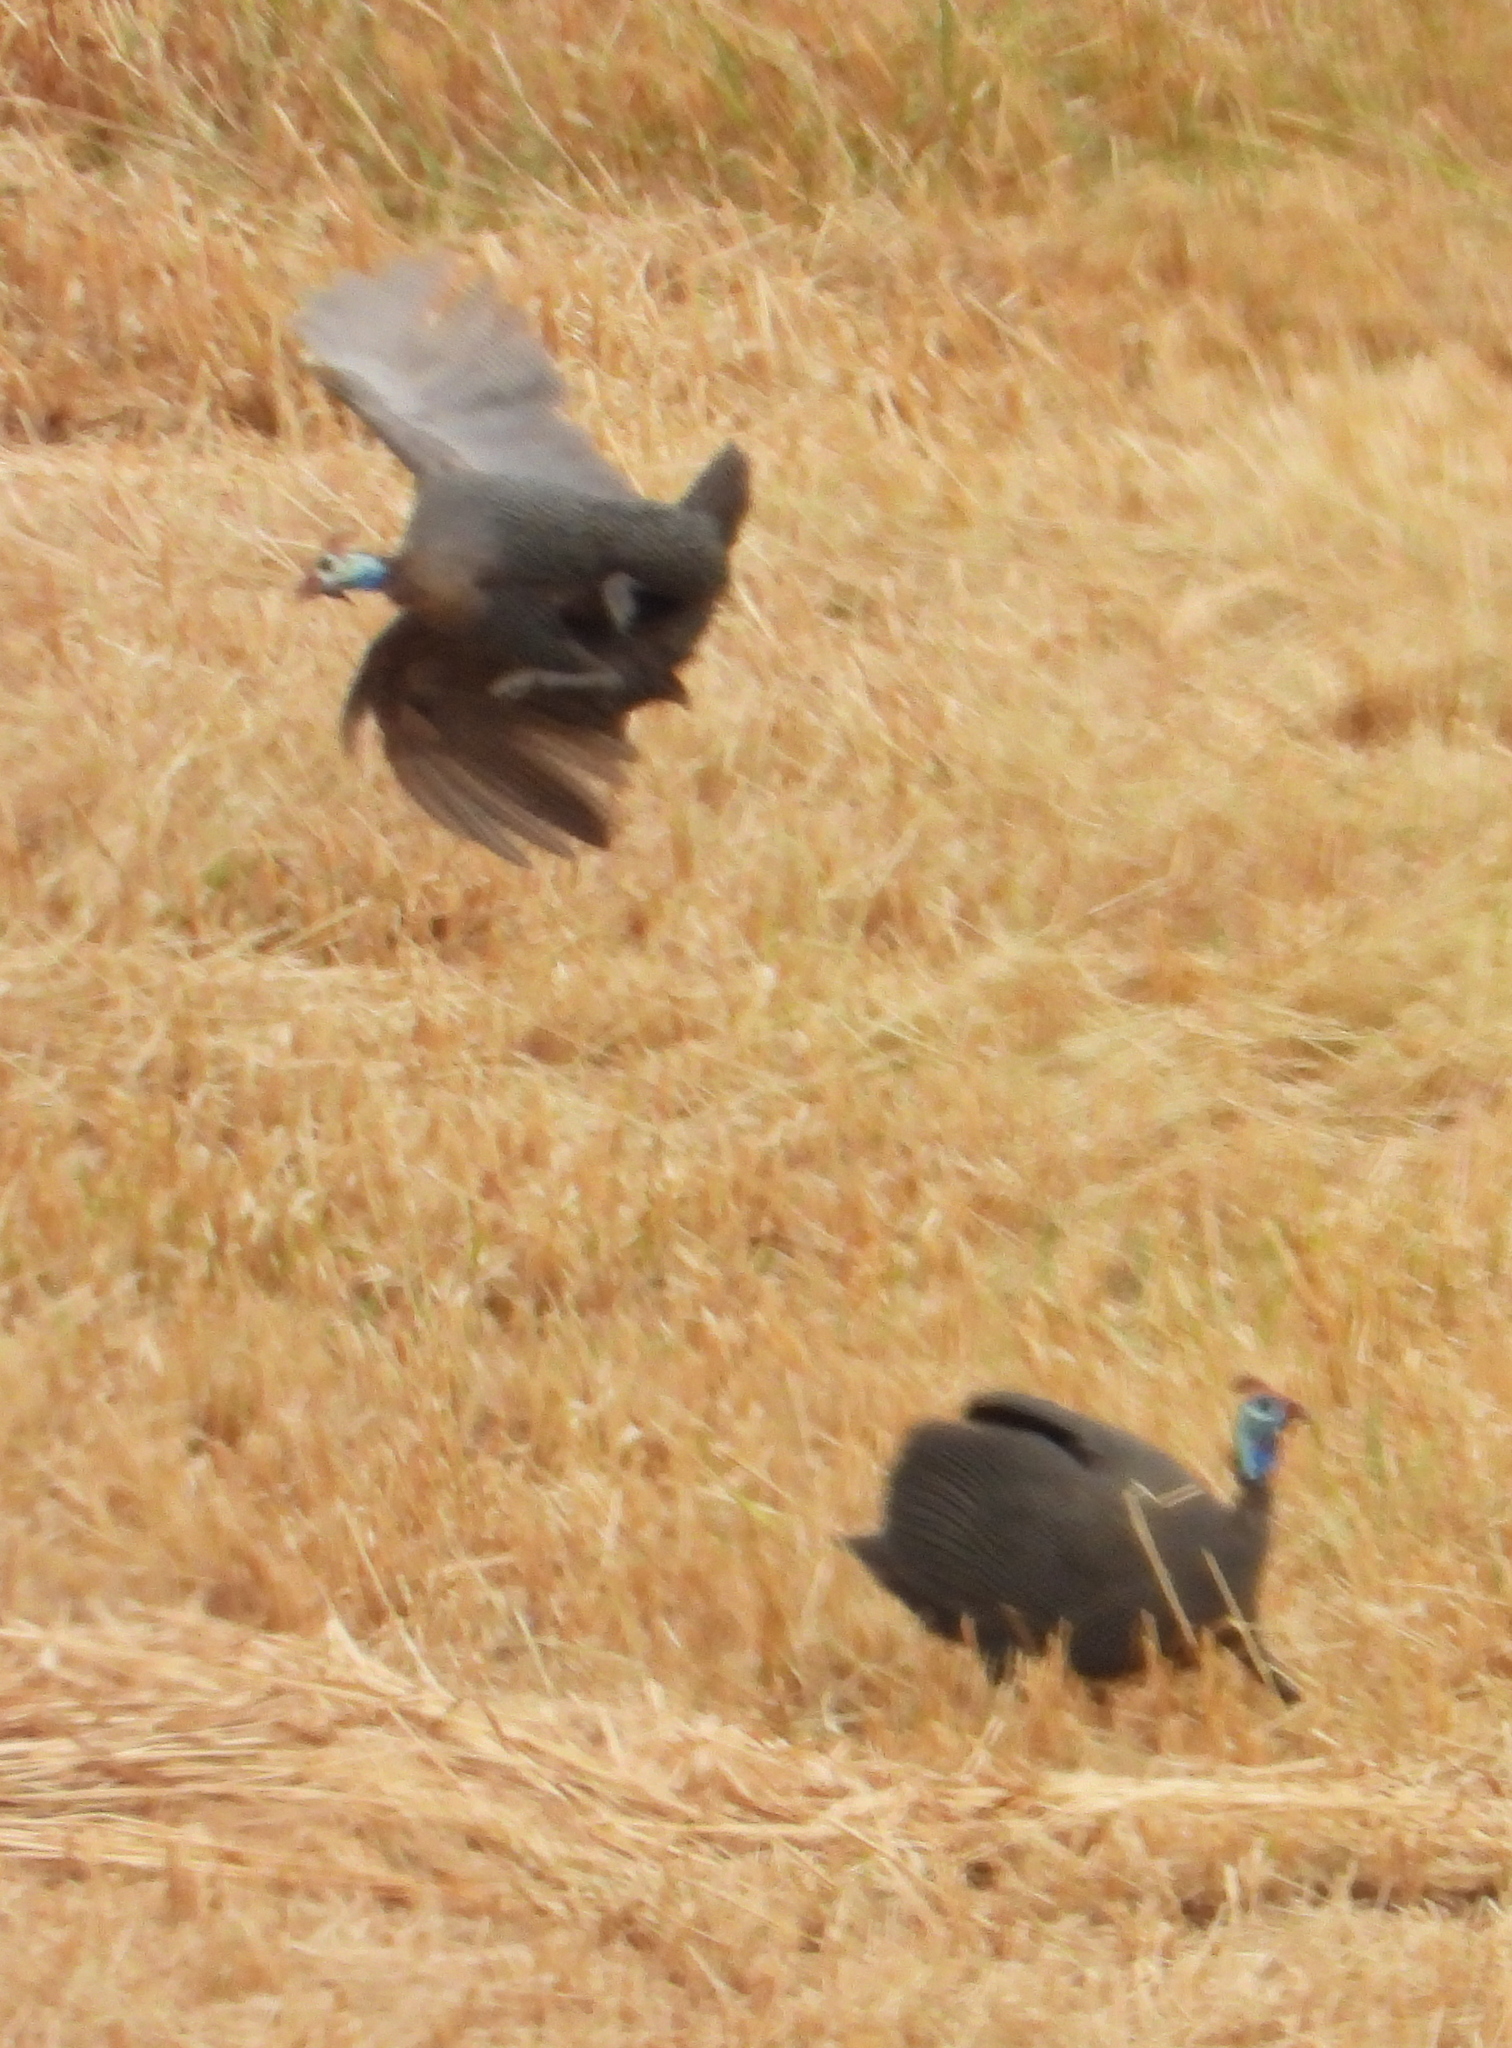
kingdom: Animalia
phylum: Chordata
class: Aves
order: Galliformes
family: Numididae
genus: Numida
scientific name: Numida meleagris
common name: Helmeted guineafowl
